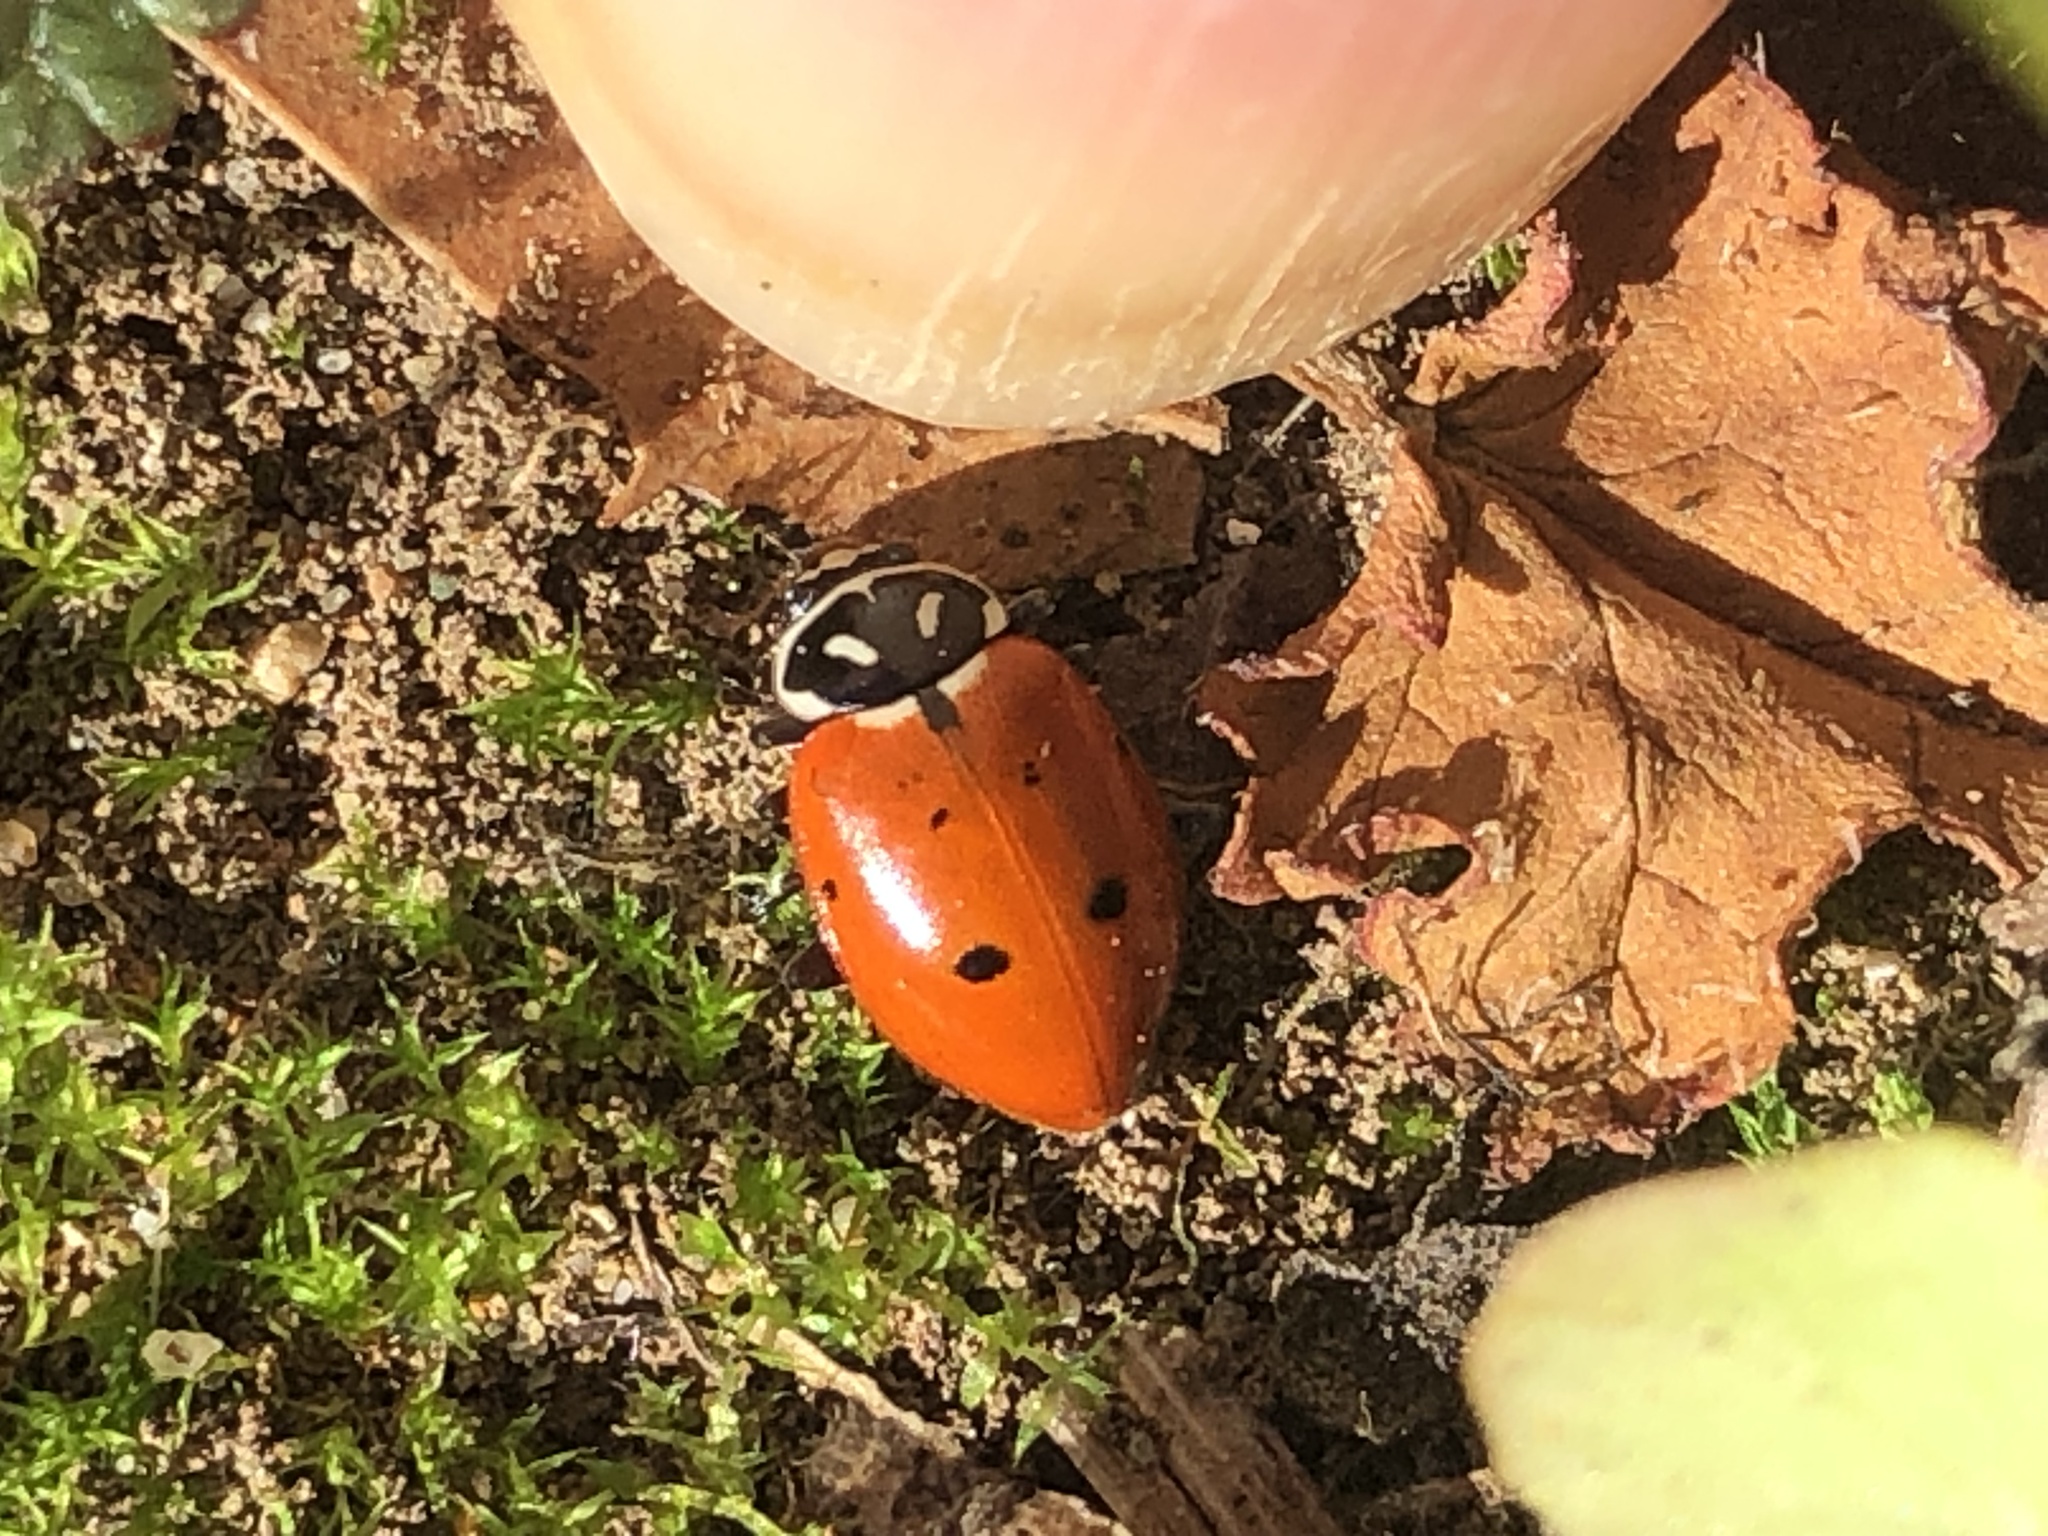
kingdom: Animalia
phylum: Arthropoda
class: Insecta
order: Coleoptera
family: Coccinellidae
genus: Hippodamia
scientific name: Hippodamia convergens
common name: Convergent lady beetle
